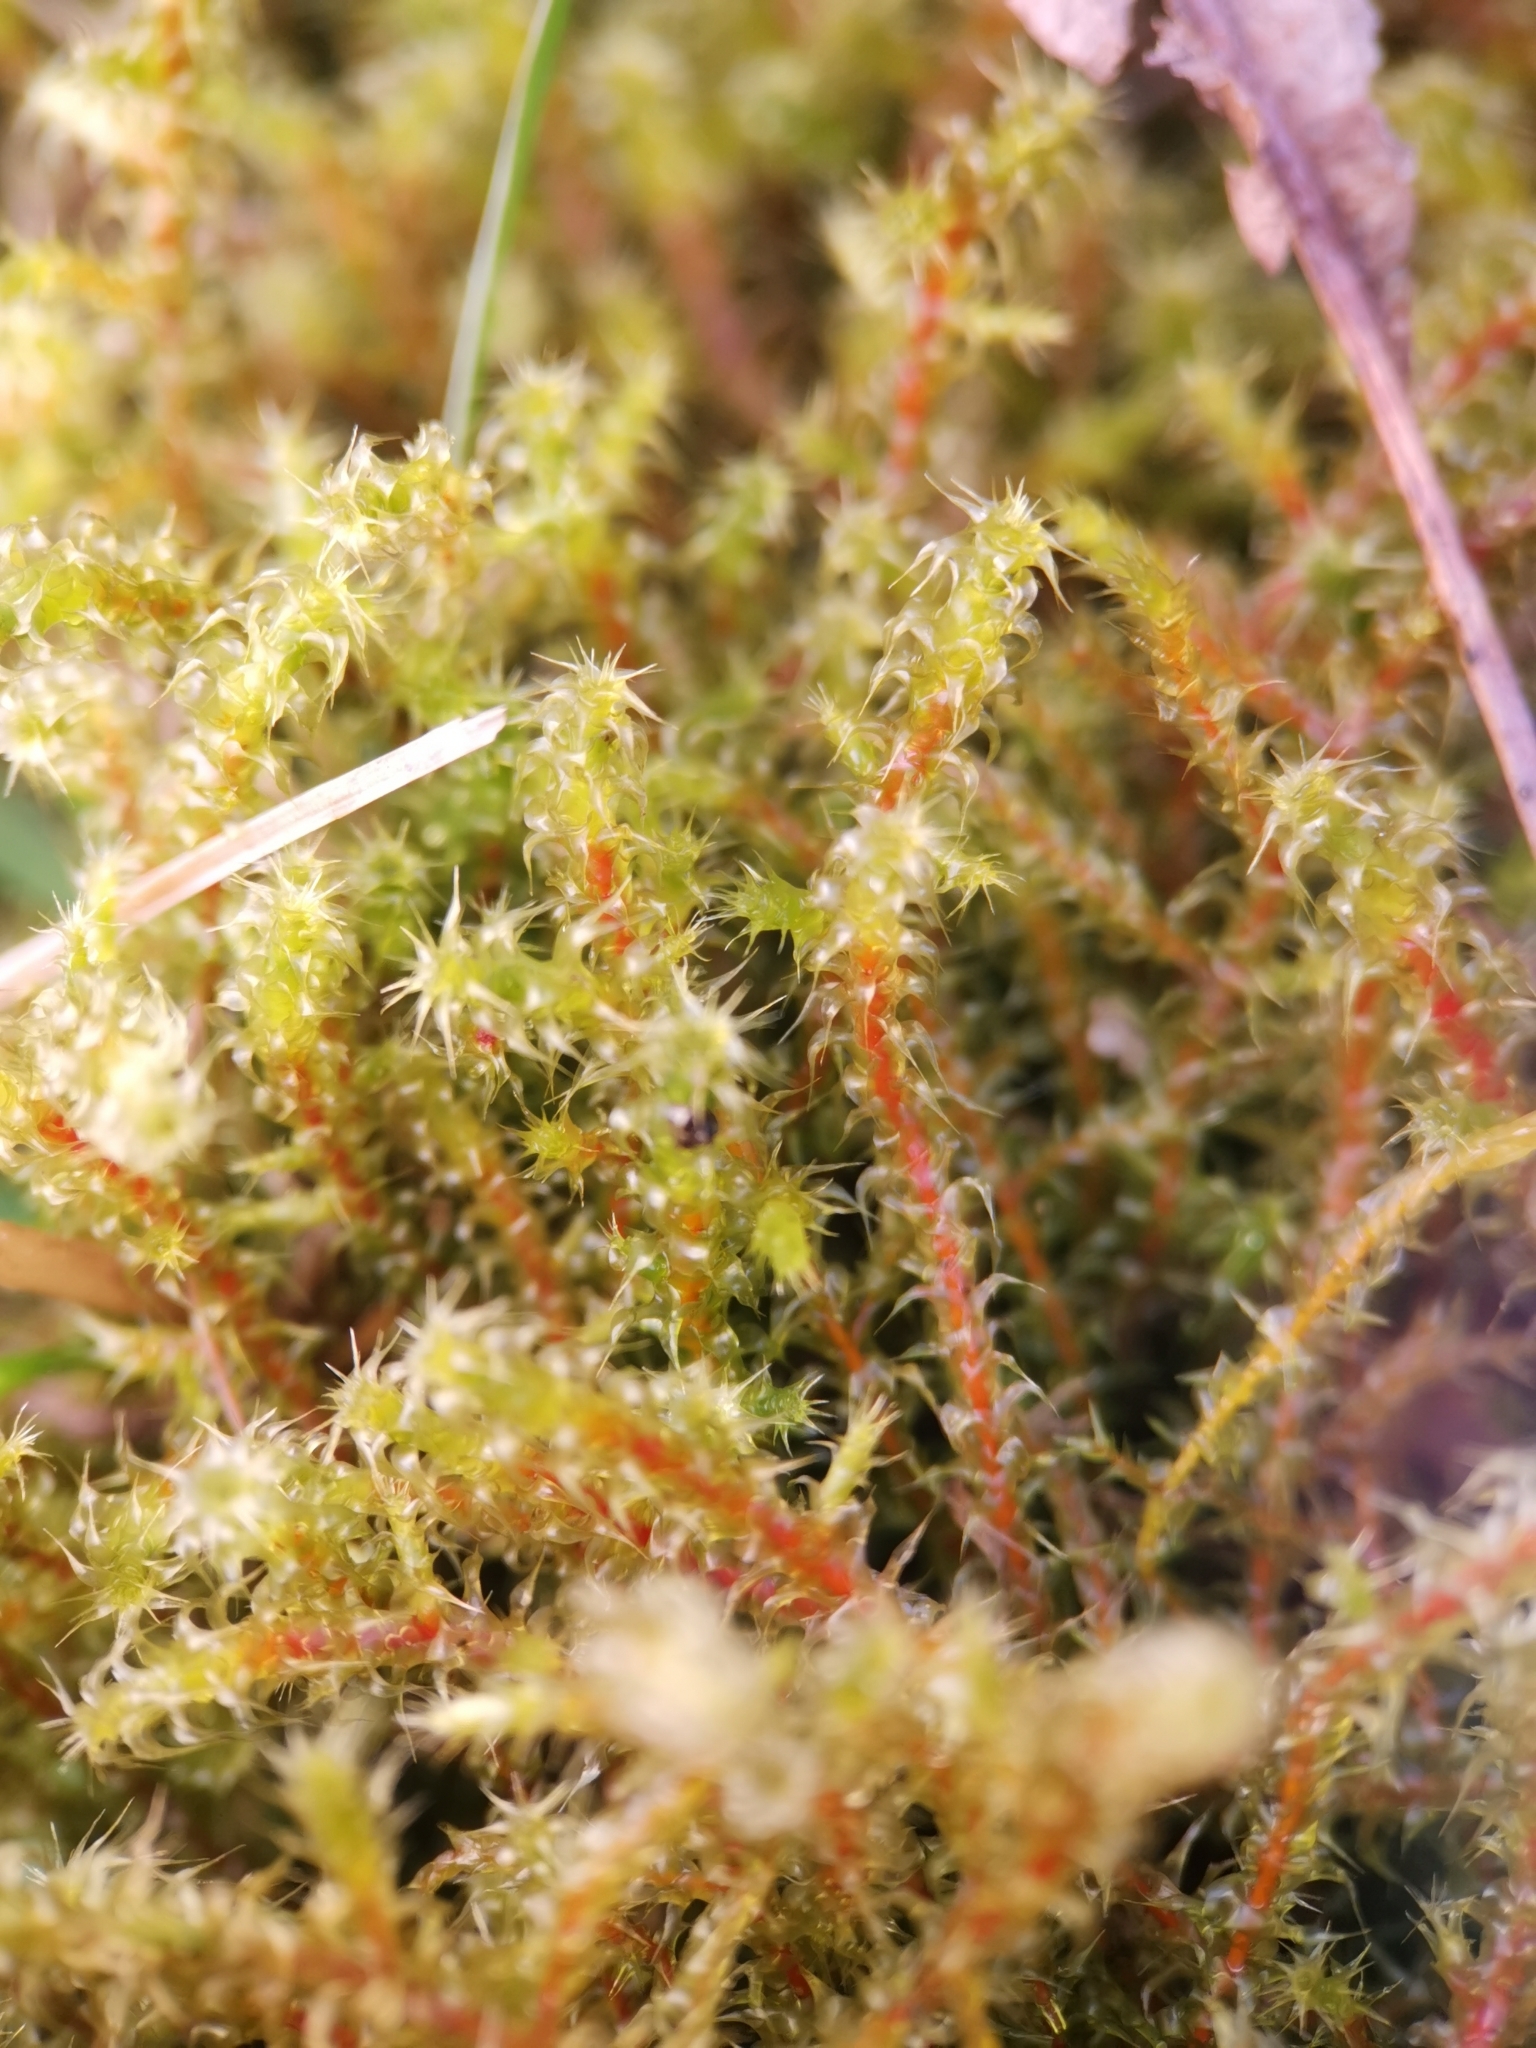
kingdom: Plantae
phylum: Bryophyta
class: Bryopsida
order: Hypnales
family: Hylocomiaceae
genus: Rhytidiadelphus
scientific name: Rhytidiadelphus squarrosus
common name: Springy turf-moss
